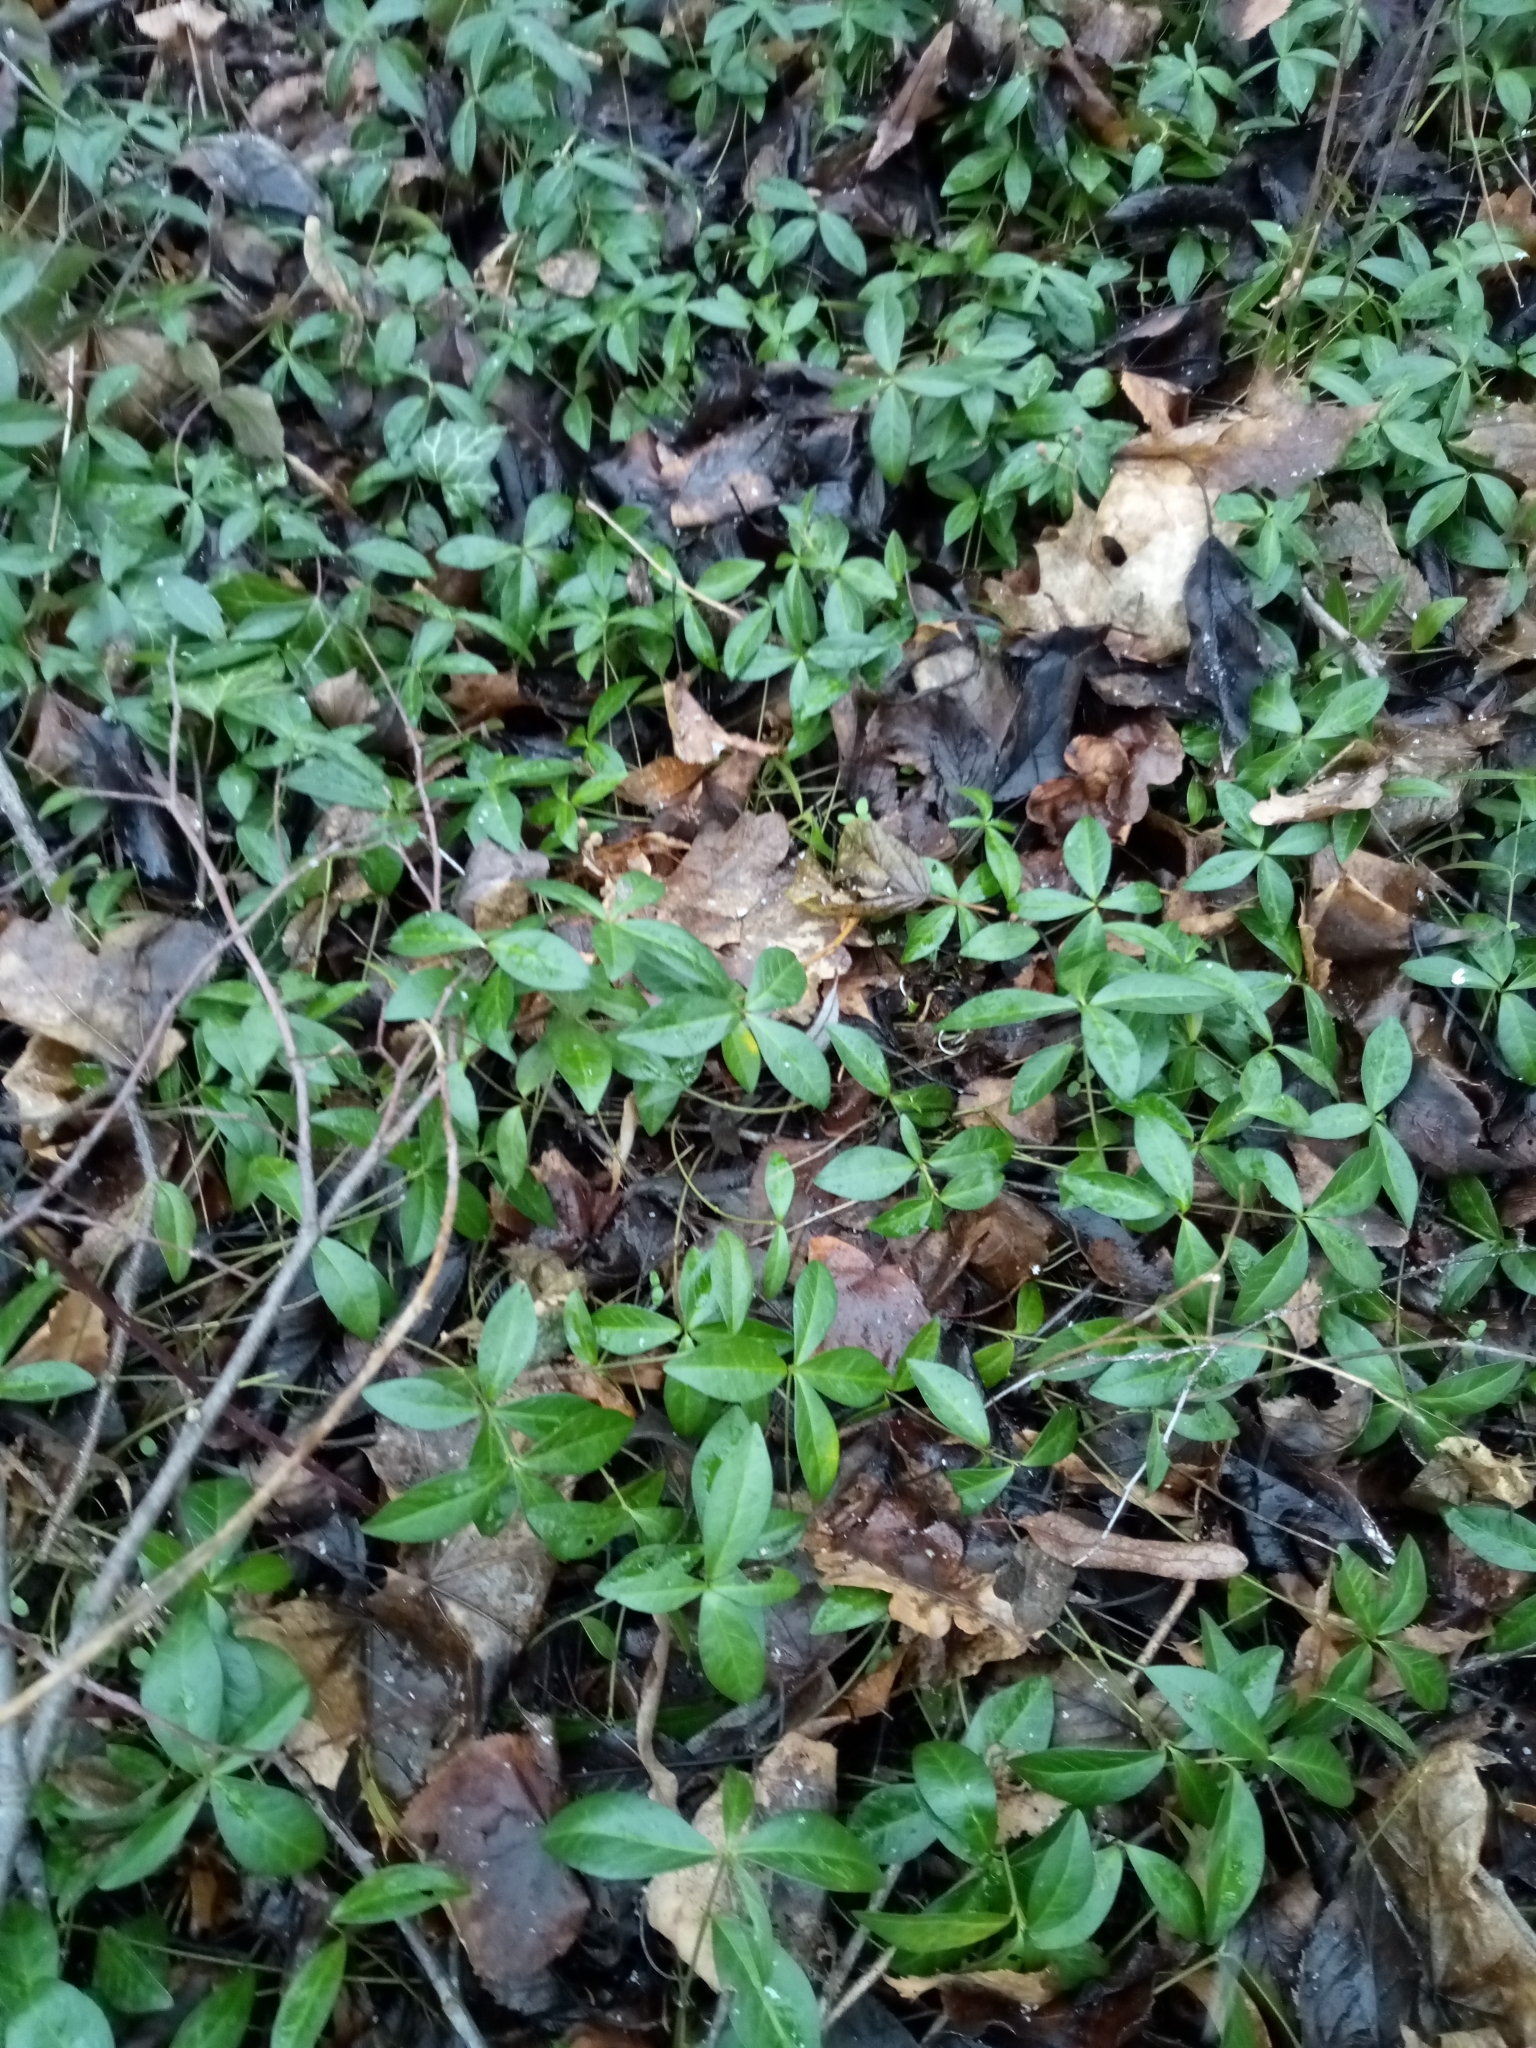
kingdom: Plantae
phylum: Tracheophyta
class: Magnoliopsida
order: Gentianales
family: Apocynaceae
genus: Vinca
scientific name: Vinca minor
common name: Lesser periwinkle
